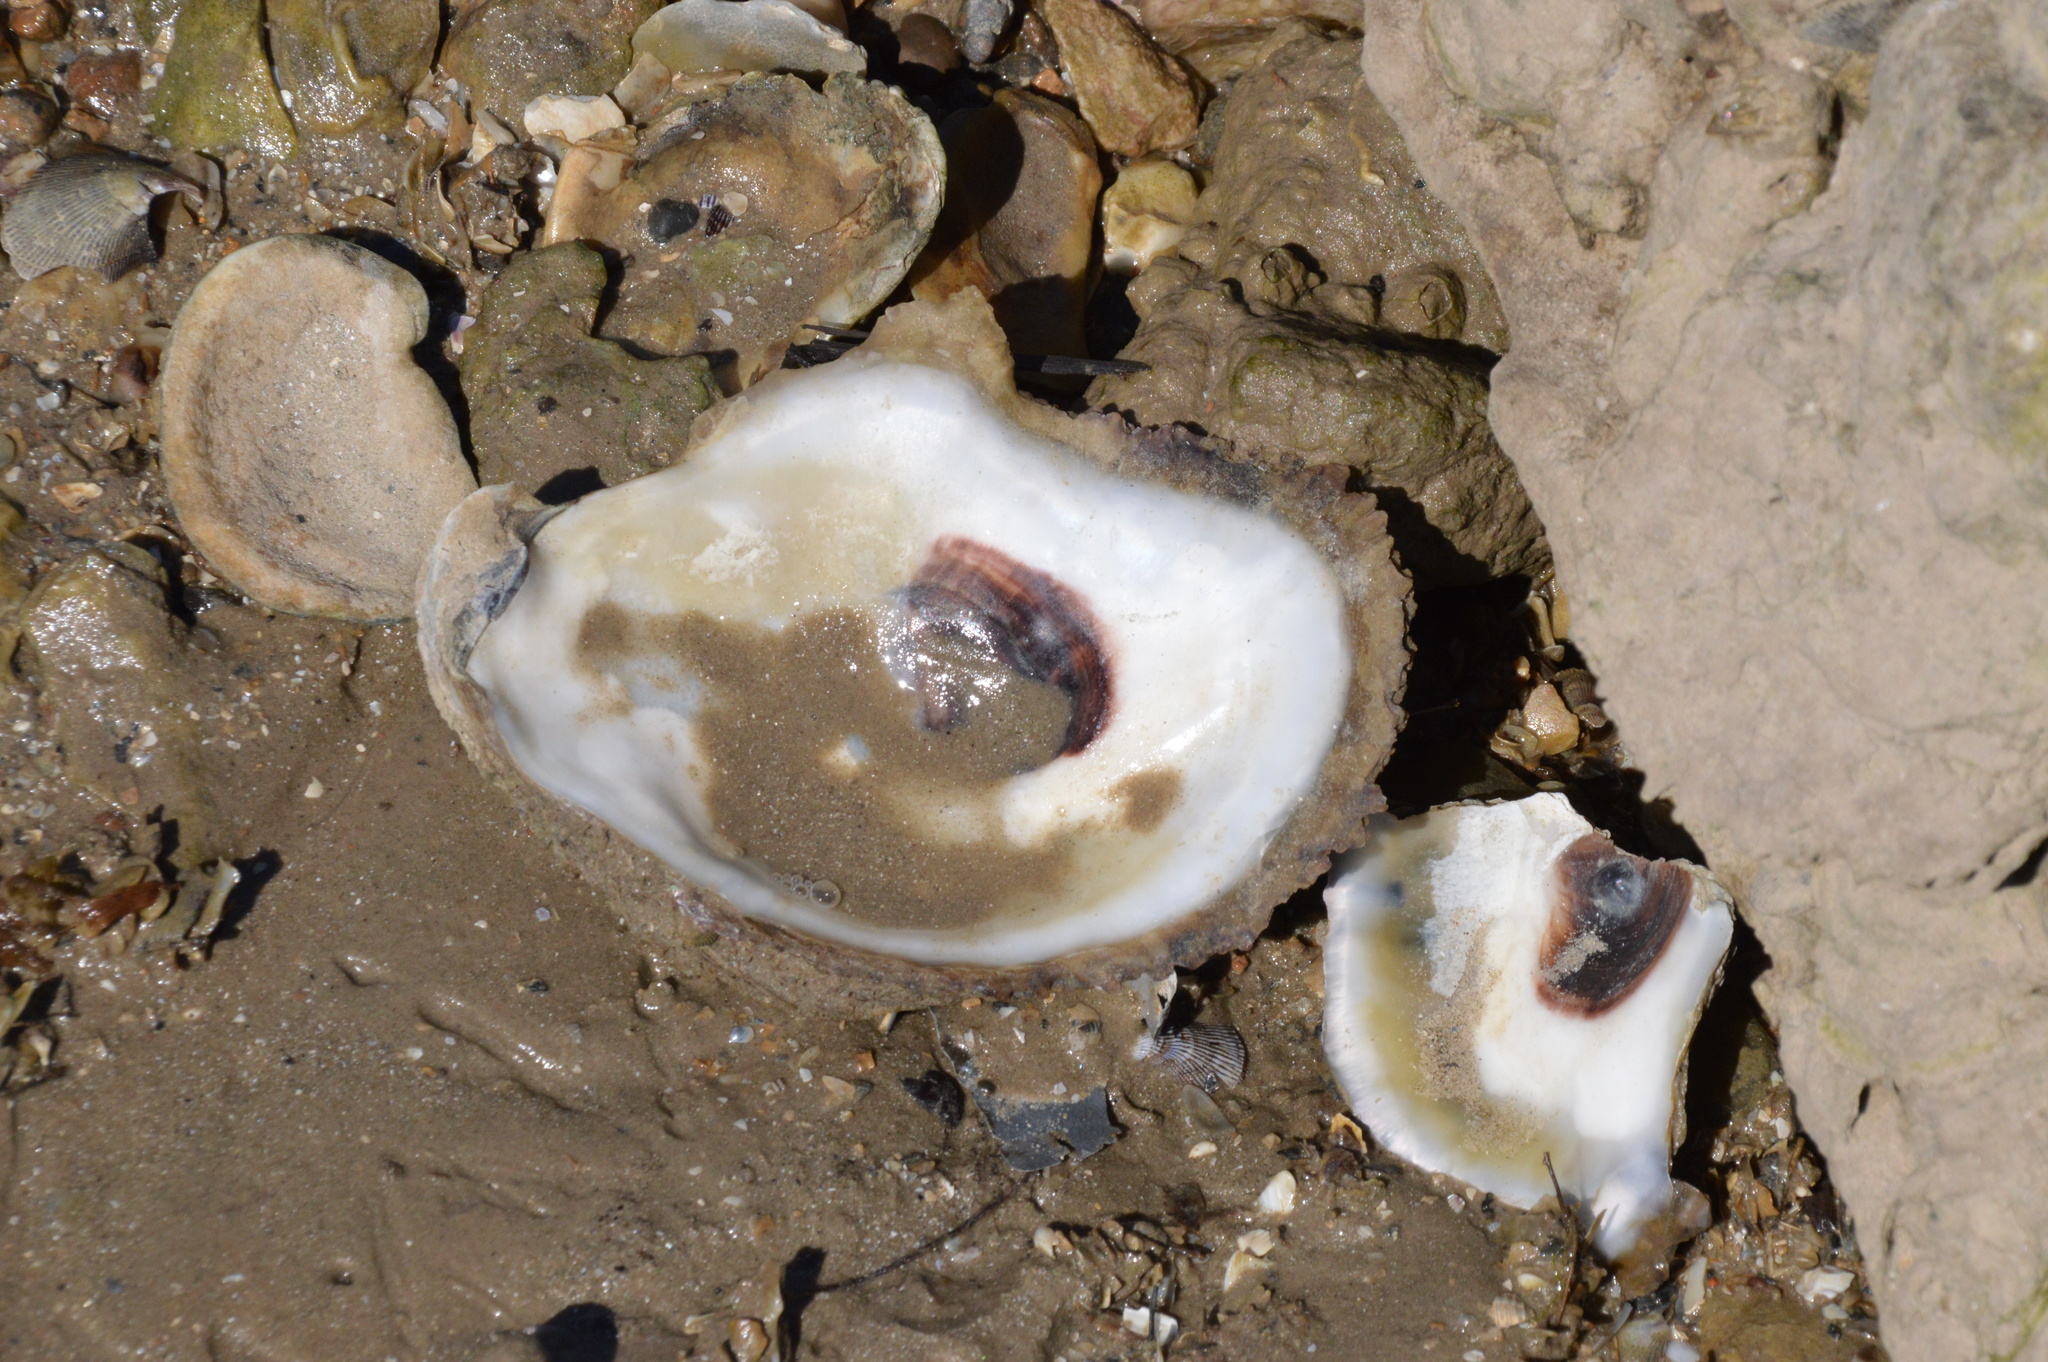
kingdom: Animalia
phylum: Mollusca
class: Bivalvia
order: Ostreida
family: Ostreidae
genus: Crassostrea
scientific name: Crassostrea virginica
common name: American oyster
